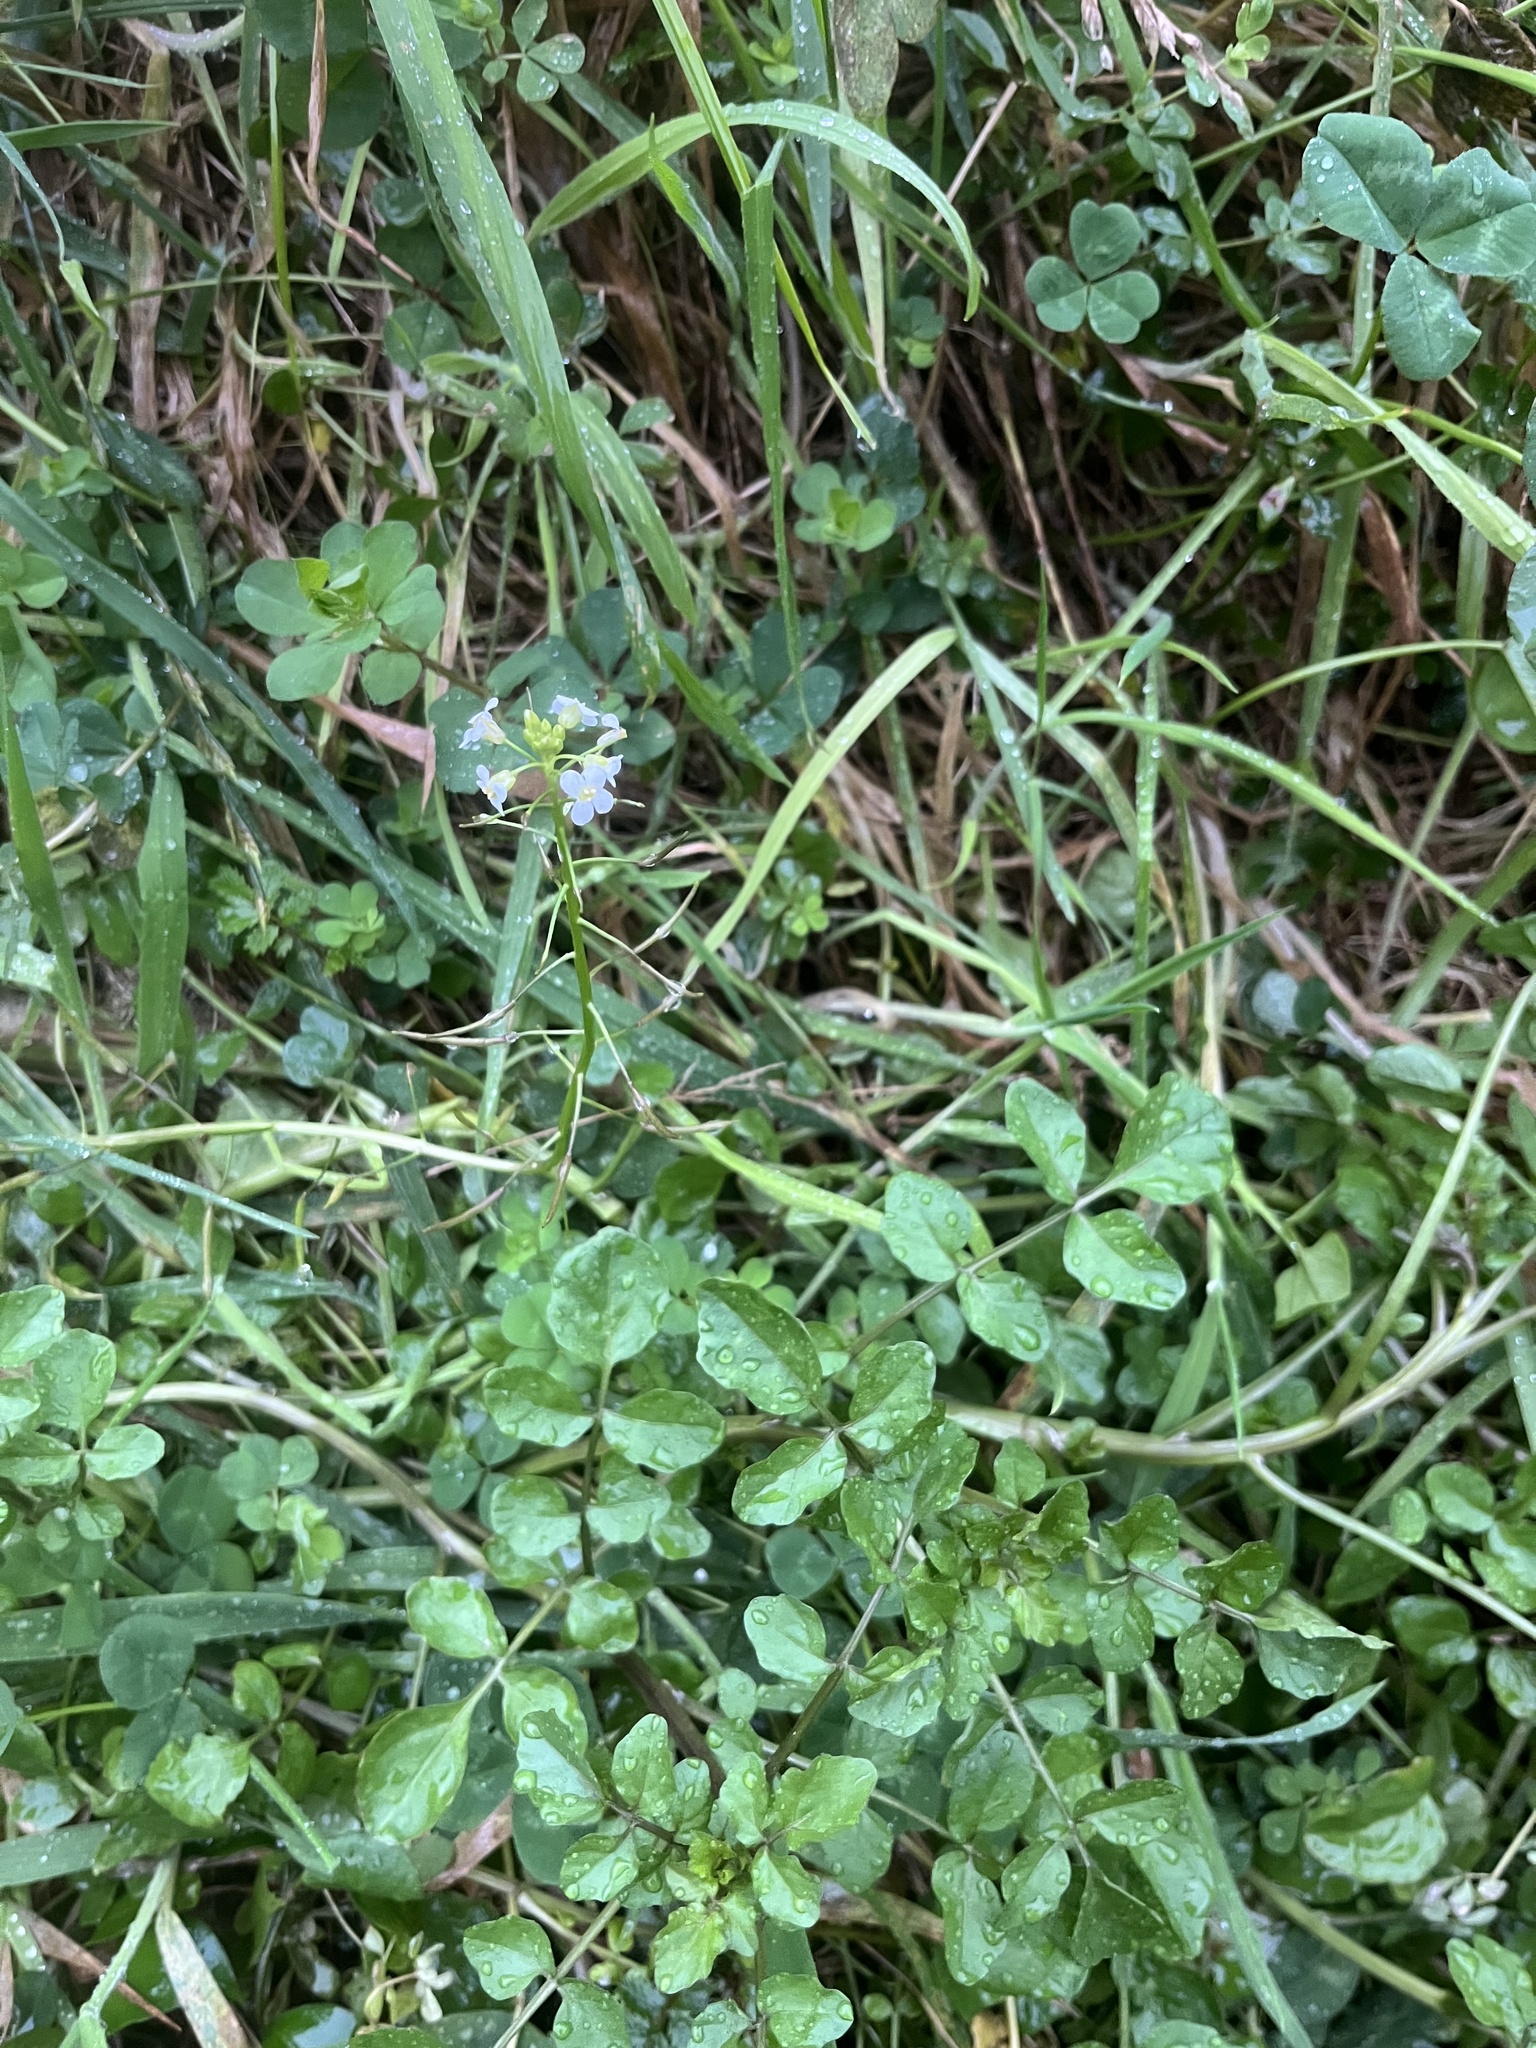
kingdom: Plantae
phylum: Tracheophyta
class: Magnoliopsida
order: Brassicales
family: Brassicaceae
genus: Nasturtium
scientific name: Nasturtium officinale
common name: Watercress
